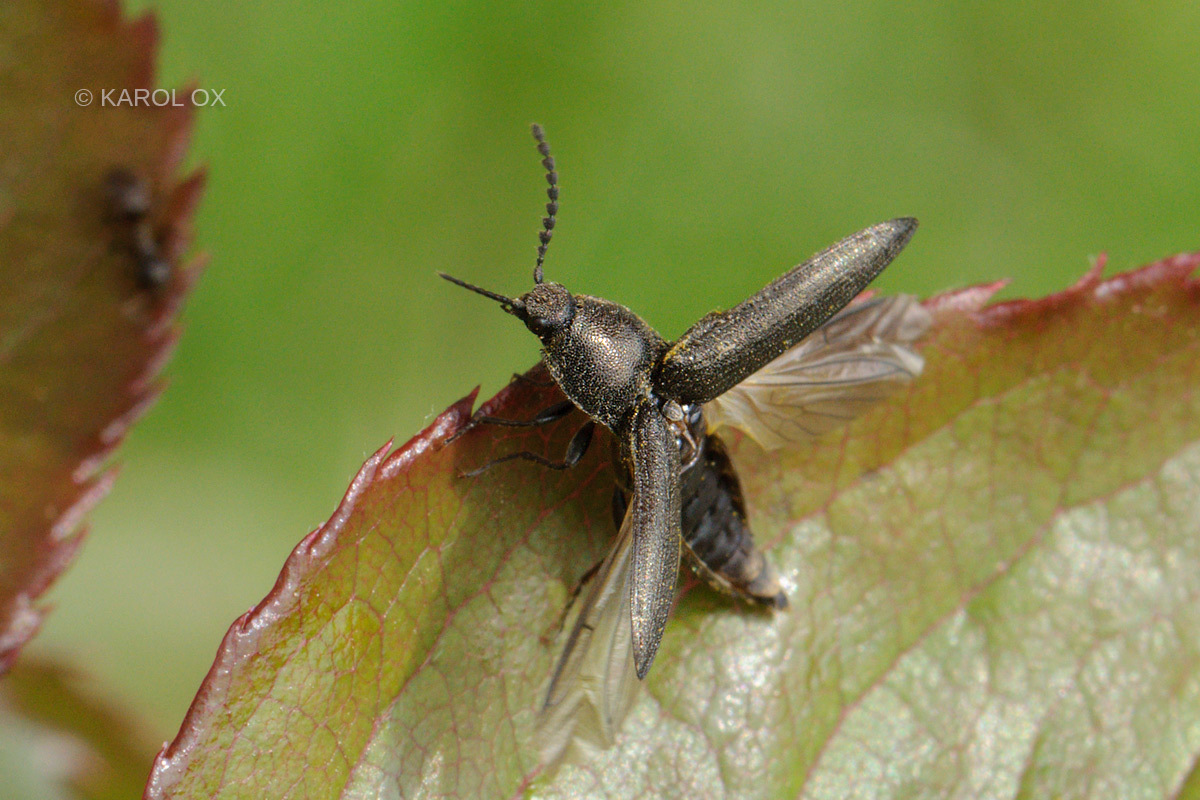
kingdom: Animalia
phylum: Arthropoda
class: Insecta
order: Coleoptera
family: Elateridae
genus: Cidnopus
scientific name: Cidnopus pilosus
